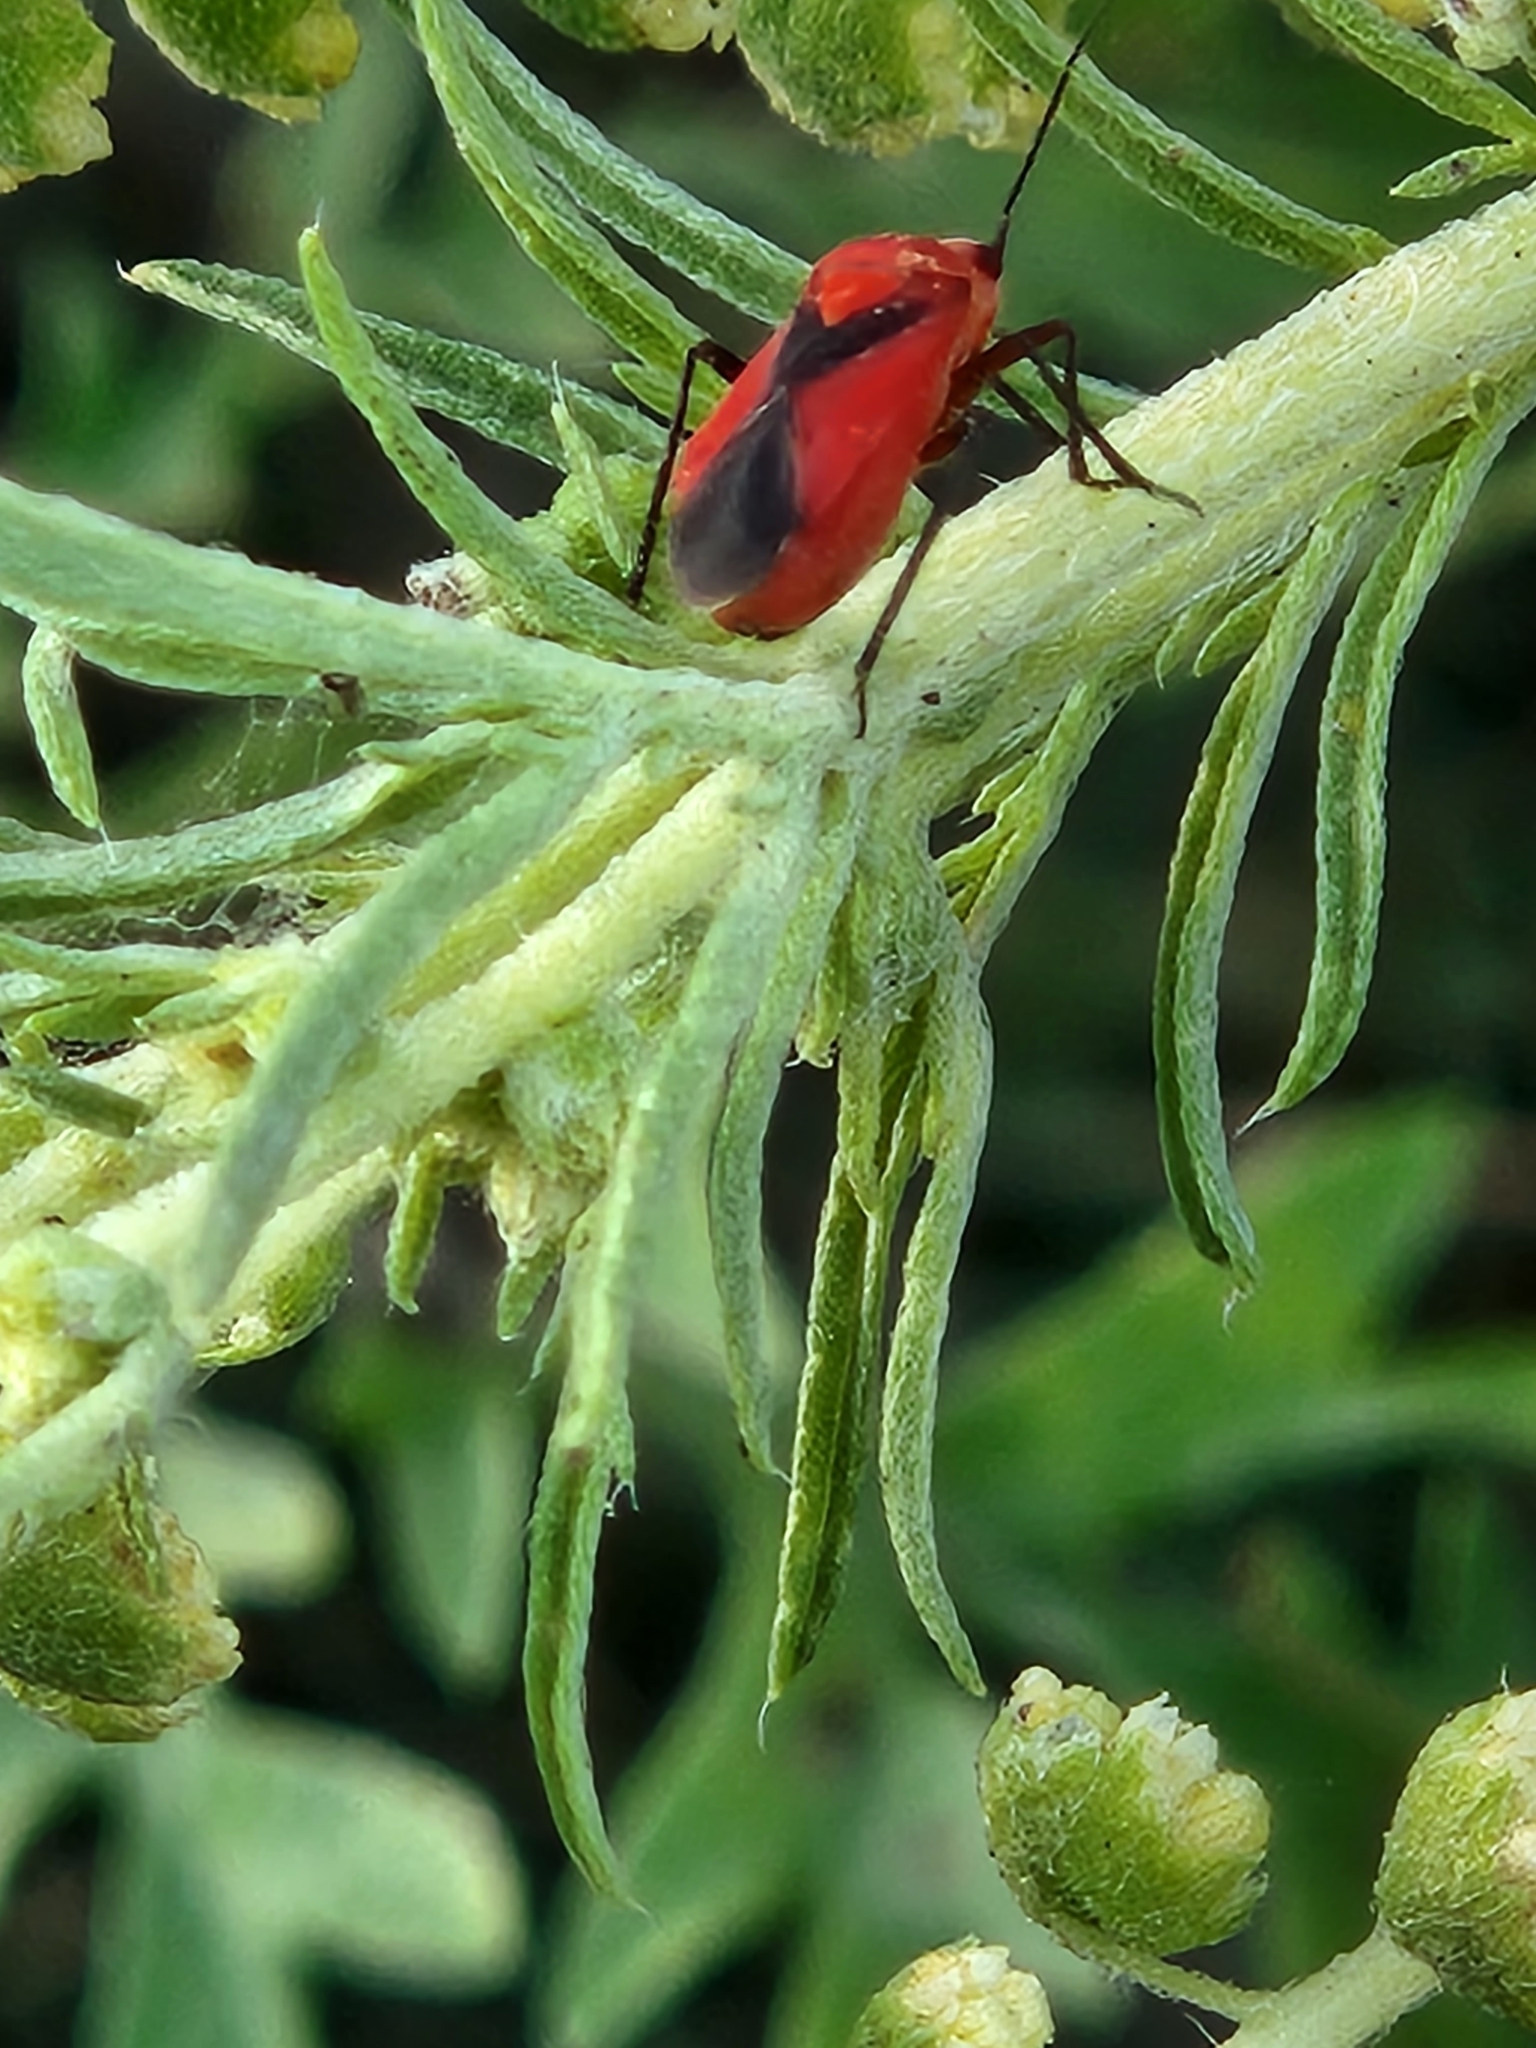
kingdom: Animalia
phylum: Arthropoda
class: Insecta
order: Hemiptera
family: Miridae
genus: Oncerometopus
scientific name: Oncerometopus nigriclavus
